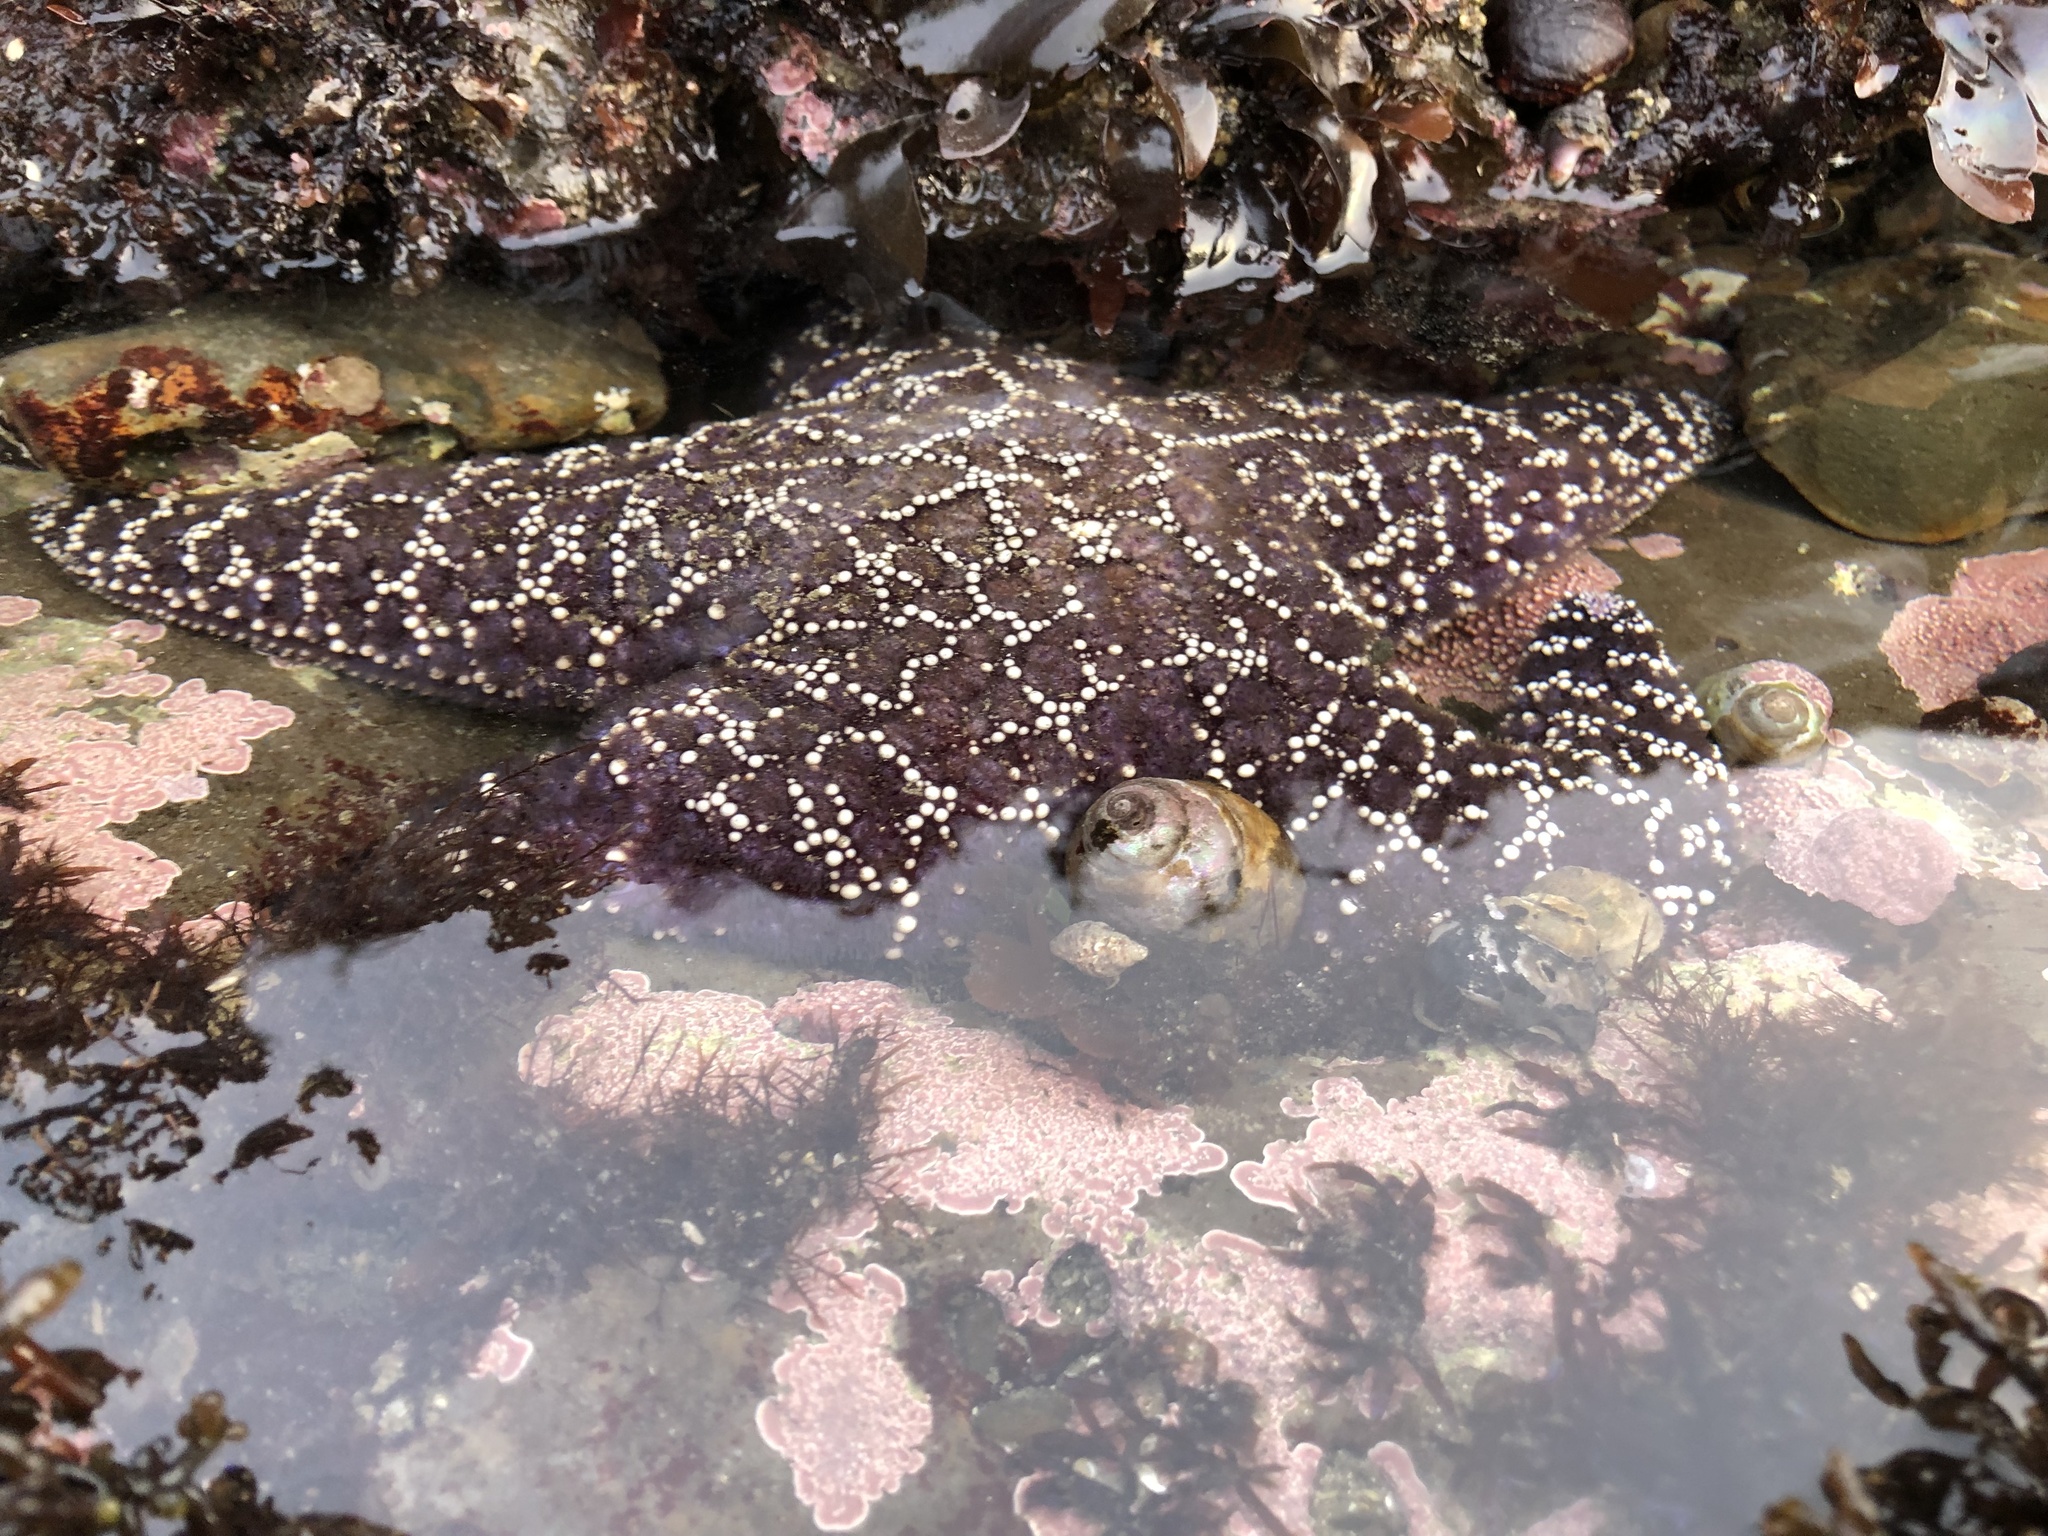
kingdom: Animalia
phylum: Echinodermata
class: Asteroidea
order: Forcipulatida
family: Asteriidae
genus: Pisaster
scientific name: Pisaster ochraceus
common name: Ochre stars
